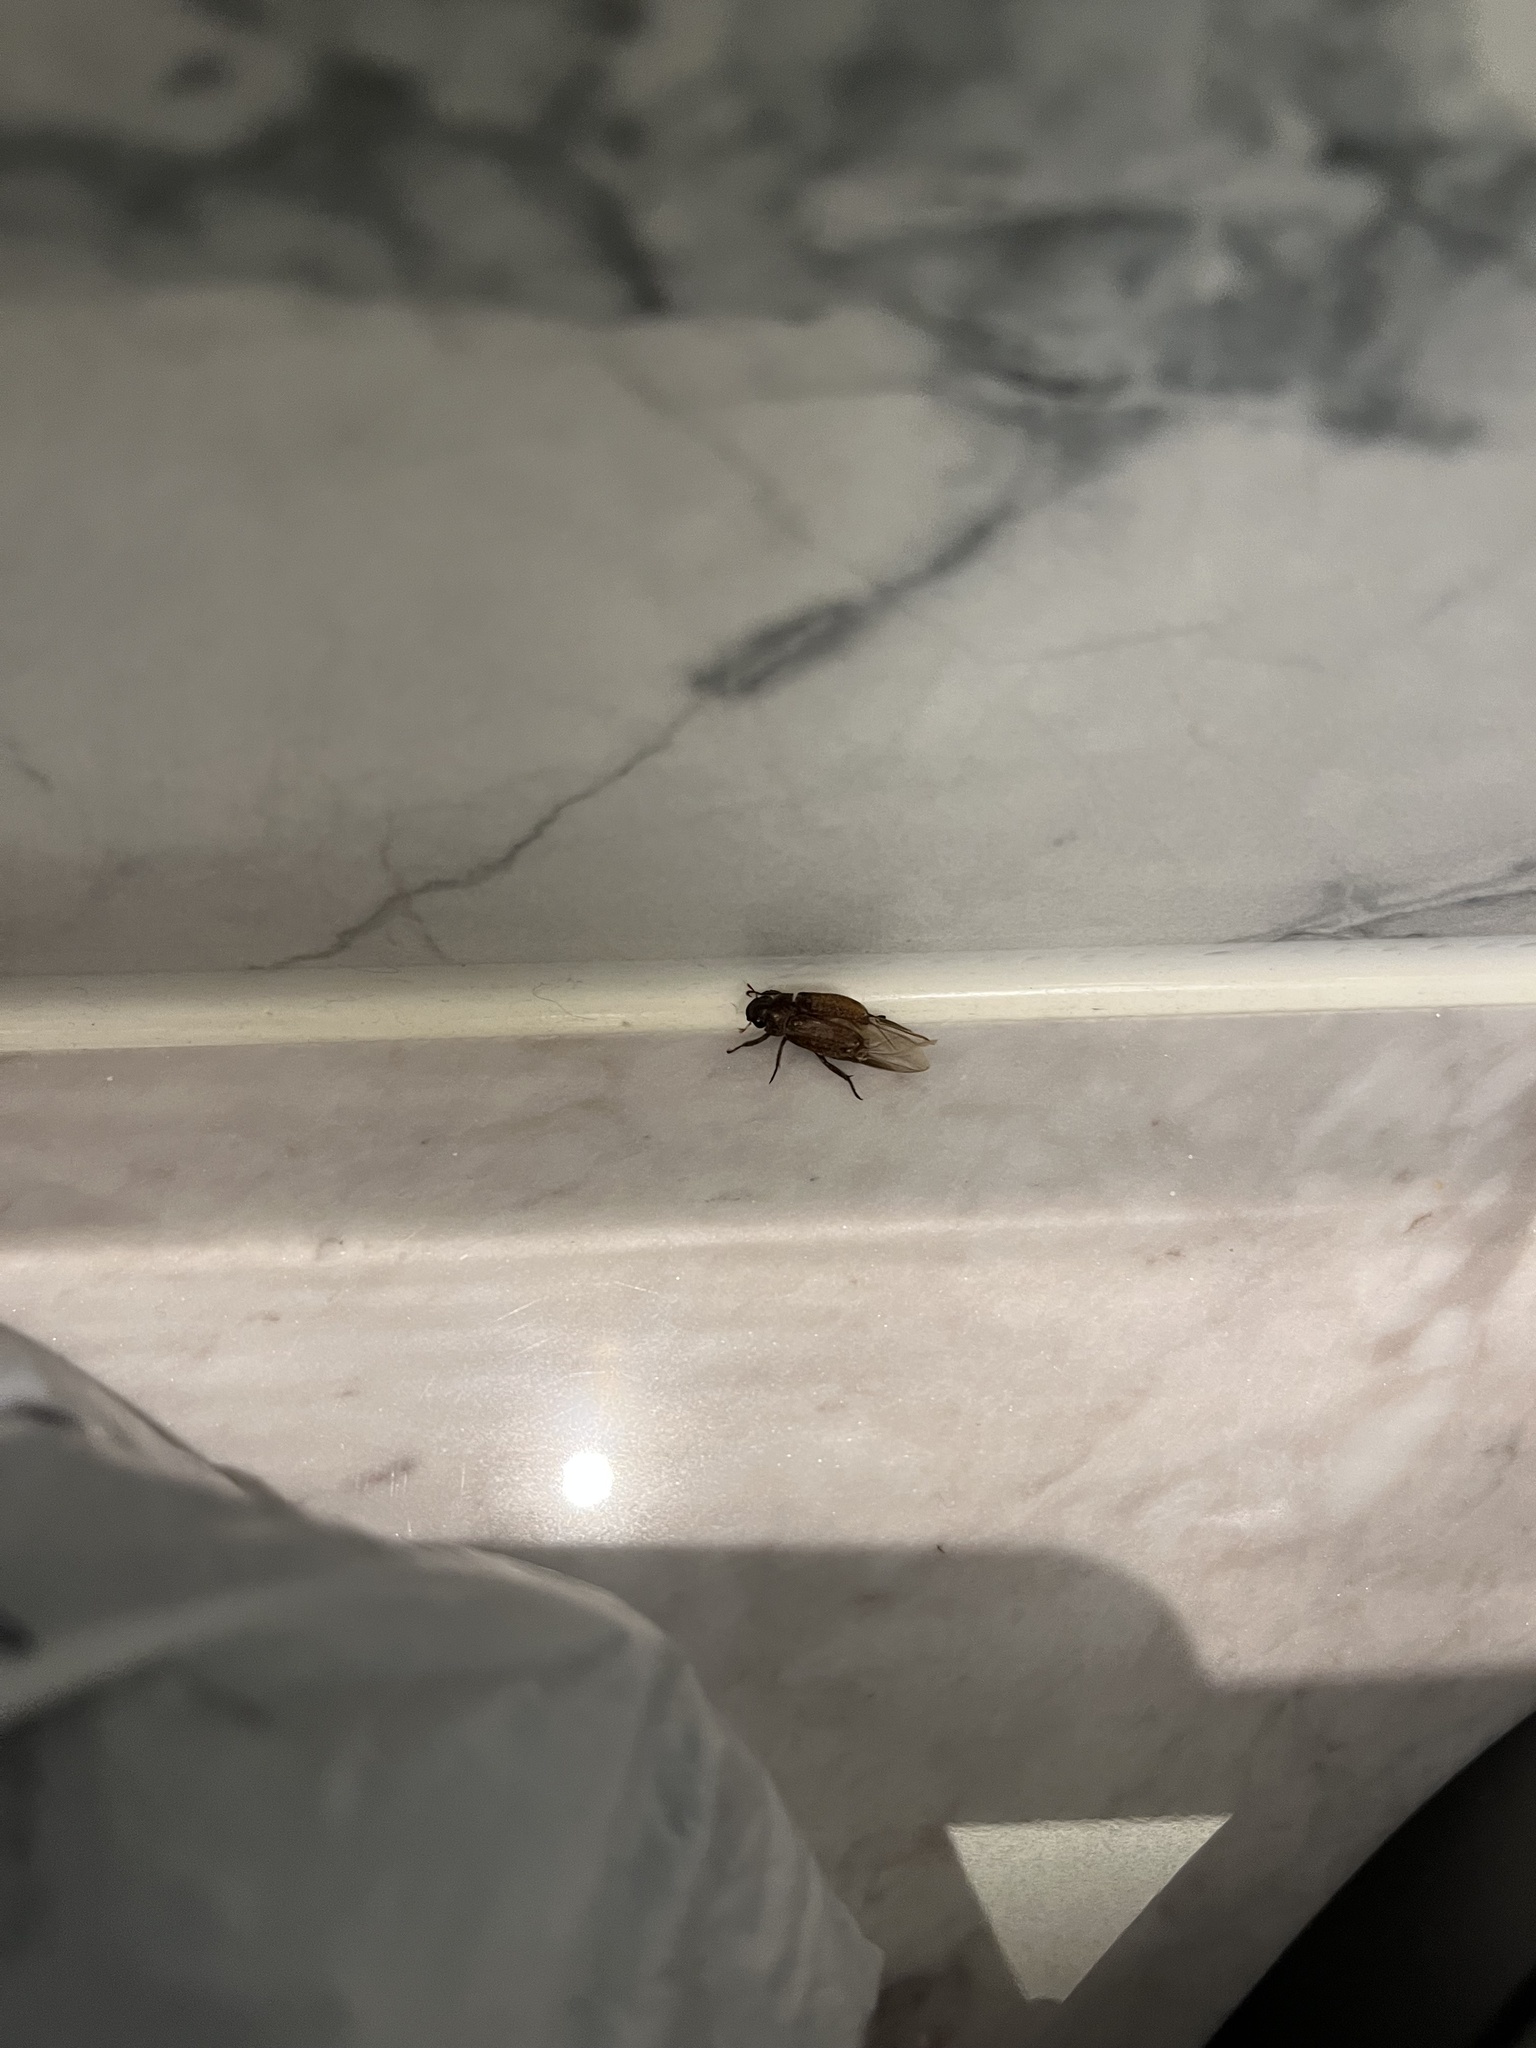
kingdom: Animalia
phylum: Arthropoda
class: Insecta
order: Coleoptera
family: Scarabaeidae
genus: Adoretus
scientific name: Adoretus sinicus
